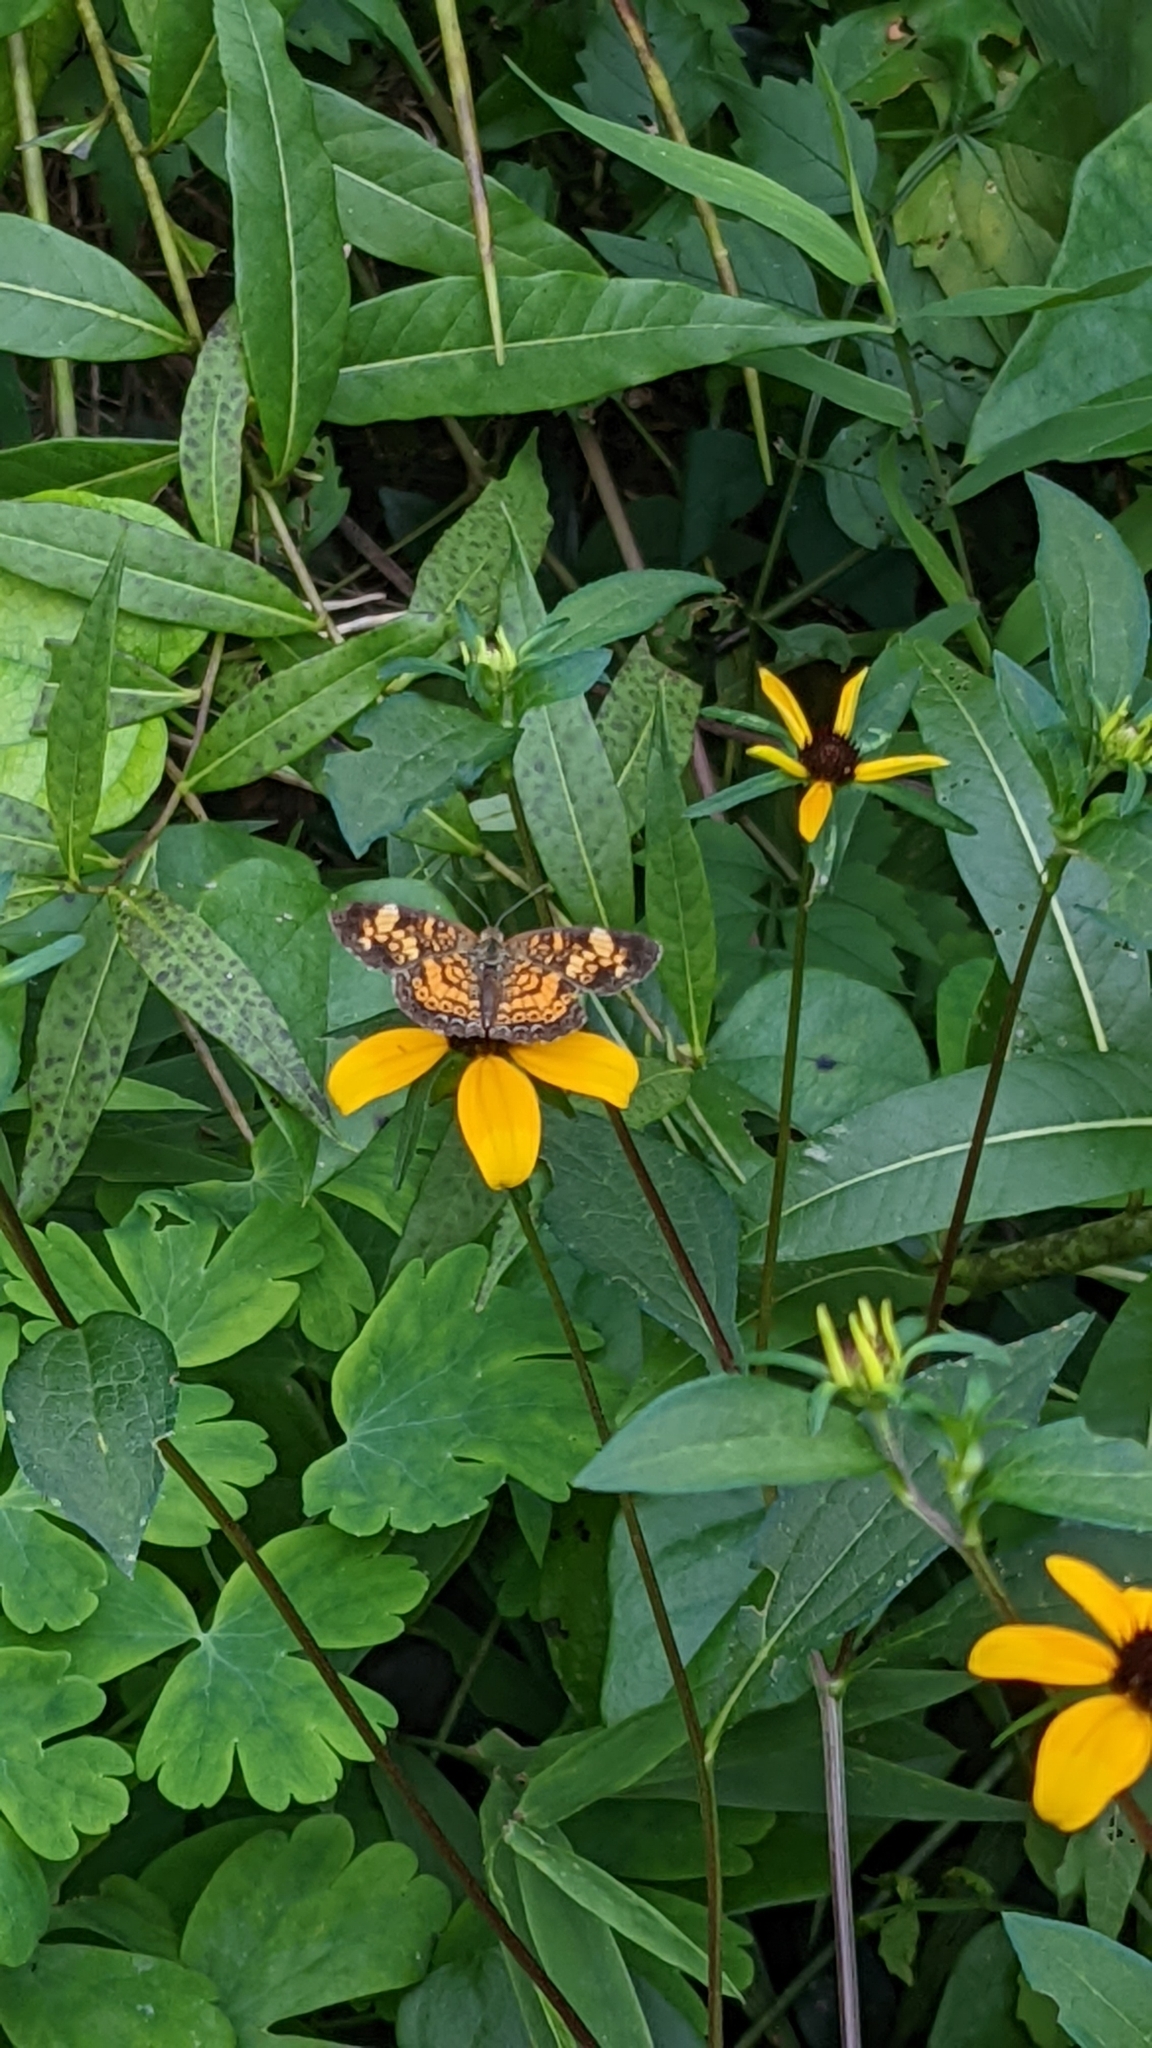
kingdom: Animalia
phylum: Arthropoda
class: Insecta
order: Lepidoptera
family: Nymphalidae
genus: Phyciodes
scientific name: Phyciodes tharos
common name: Pearl crescent
